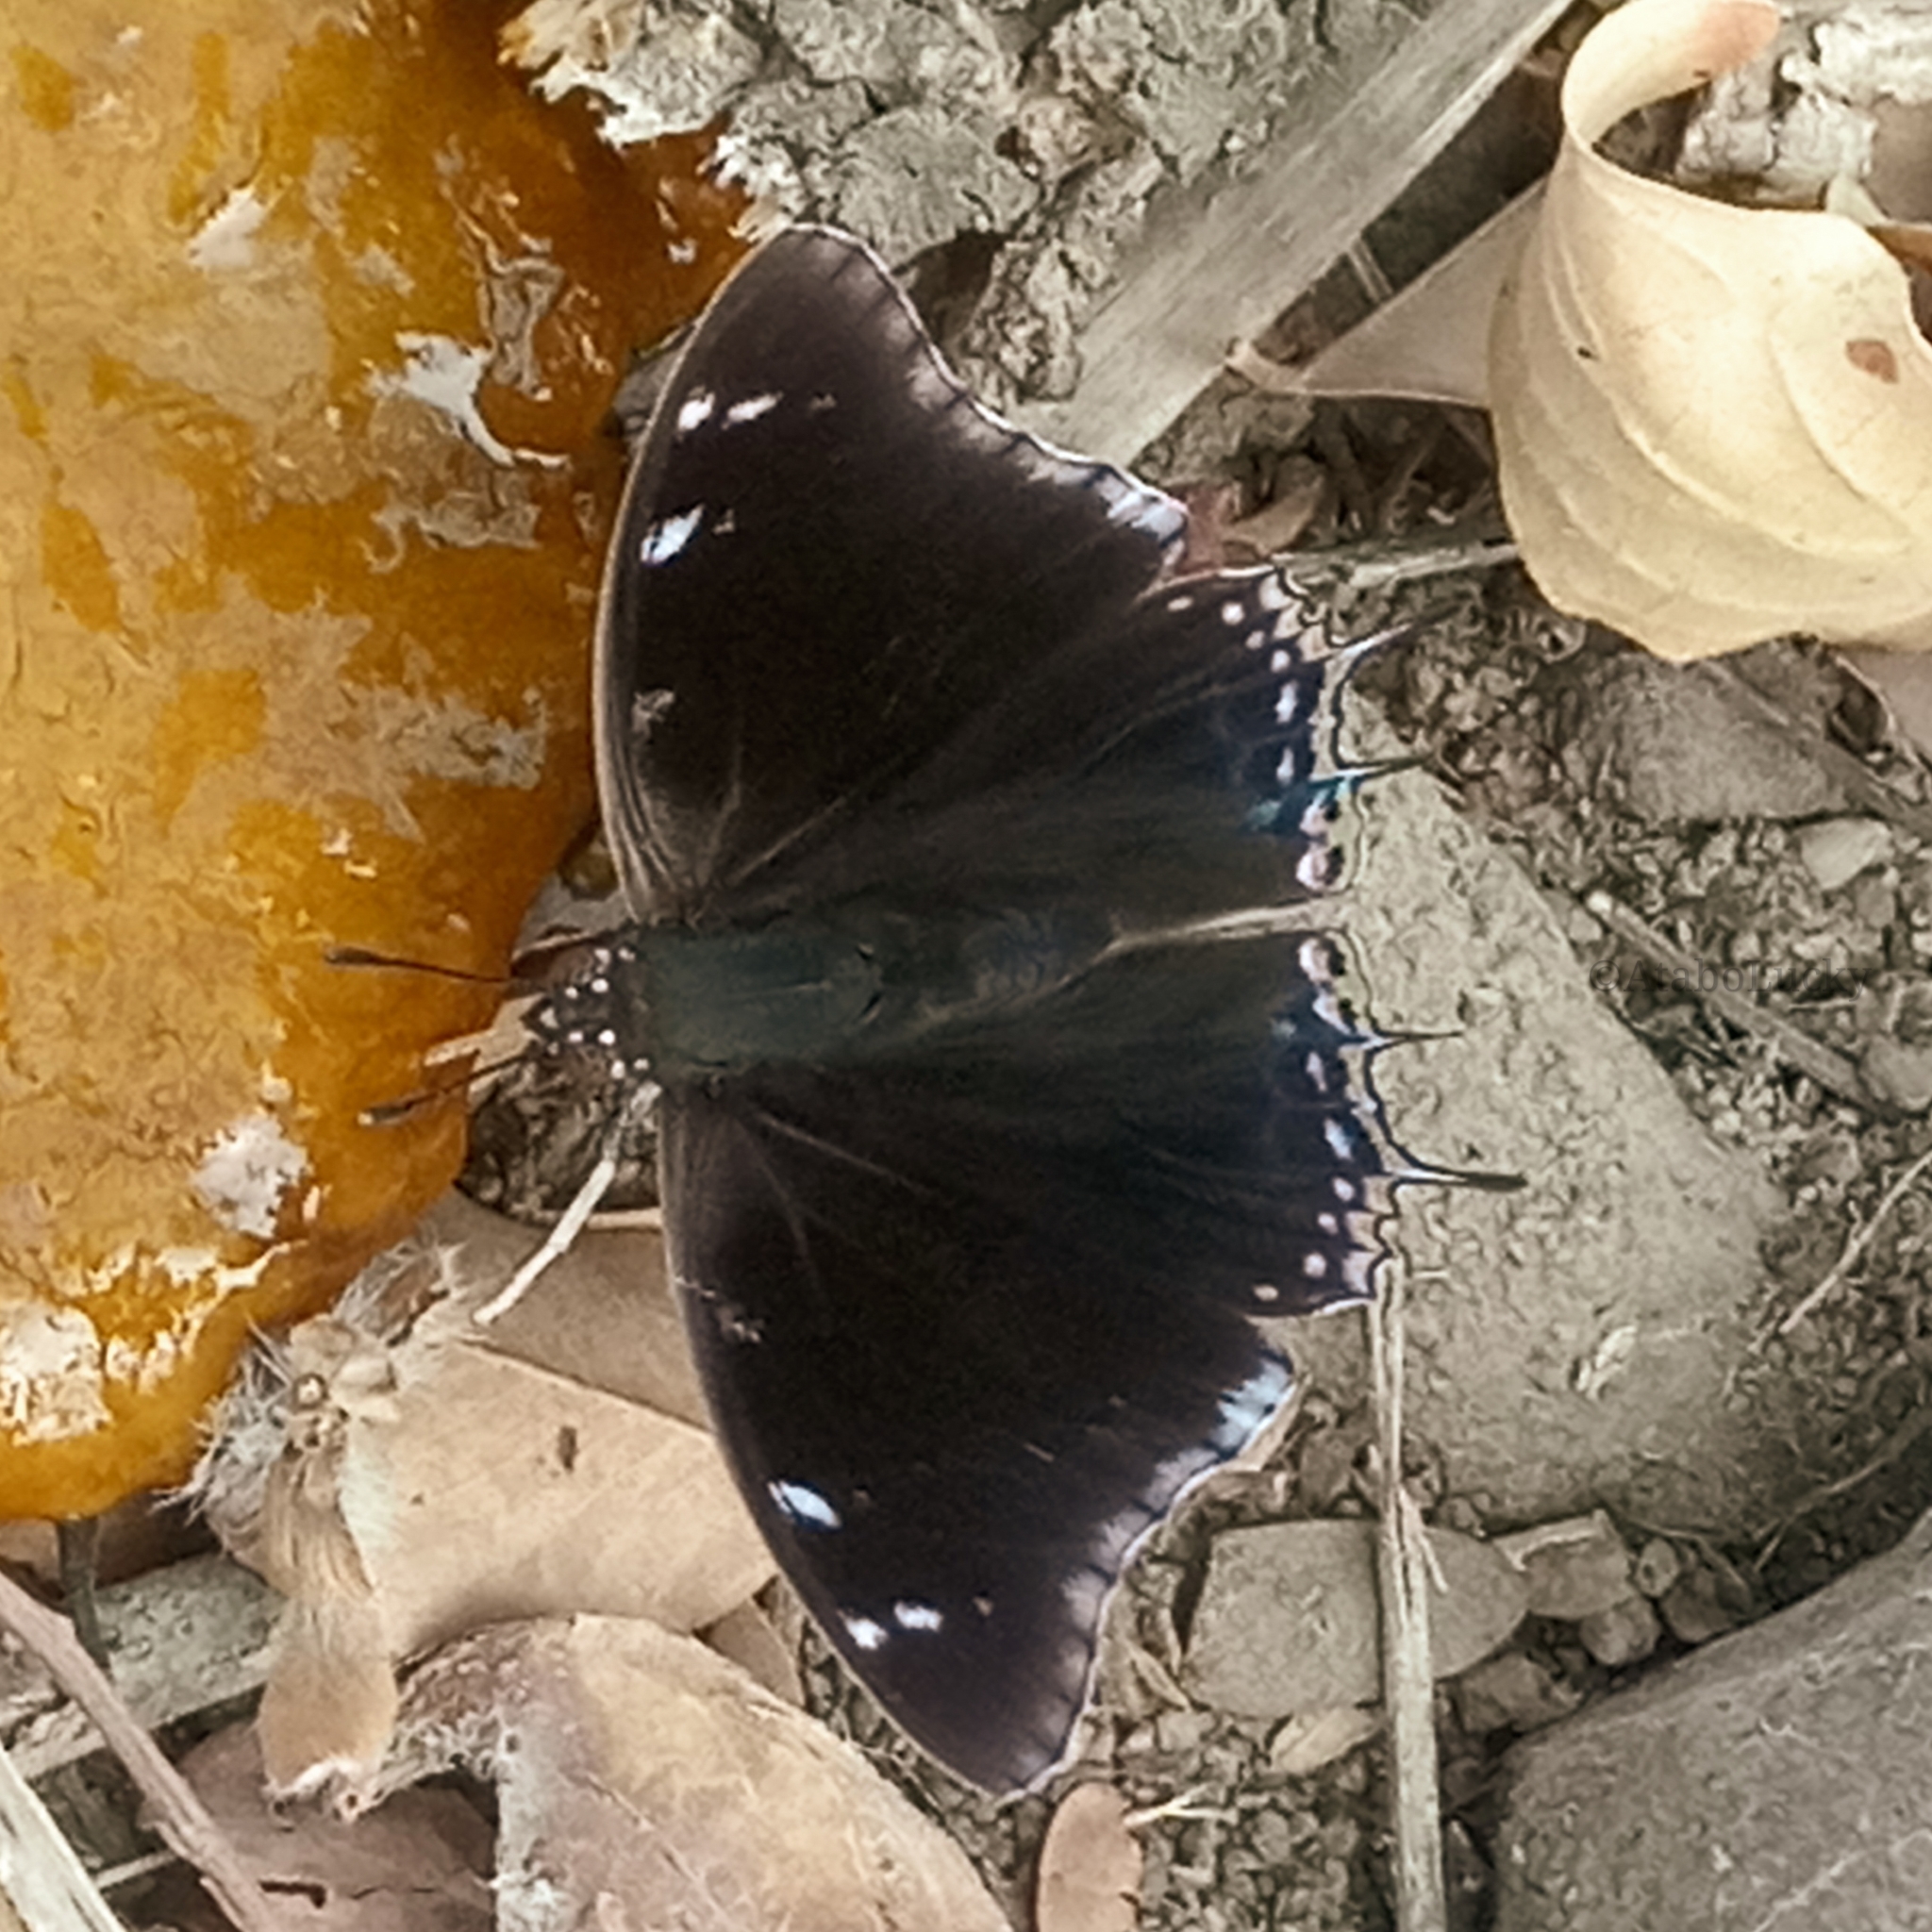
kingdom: Animalia
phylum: Arthropoda
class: Insecta
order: Lepidoptera
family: Nymphalidae
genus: Charaxes
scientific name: Charaxes viola
